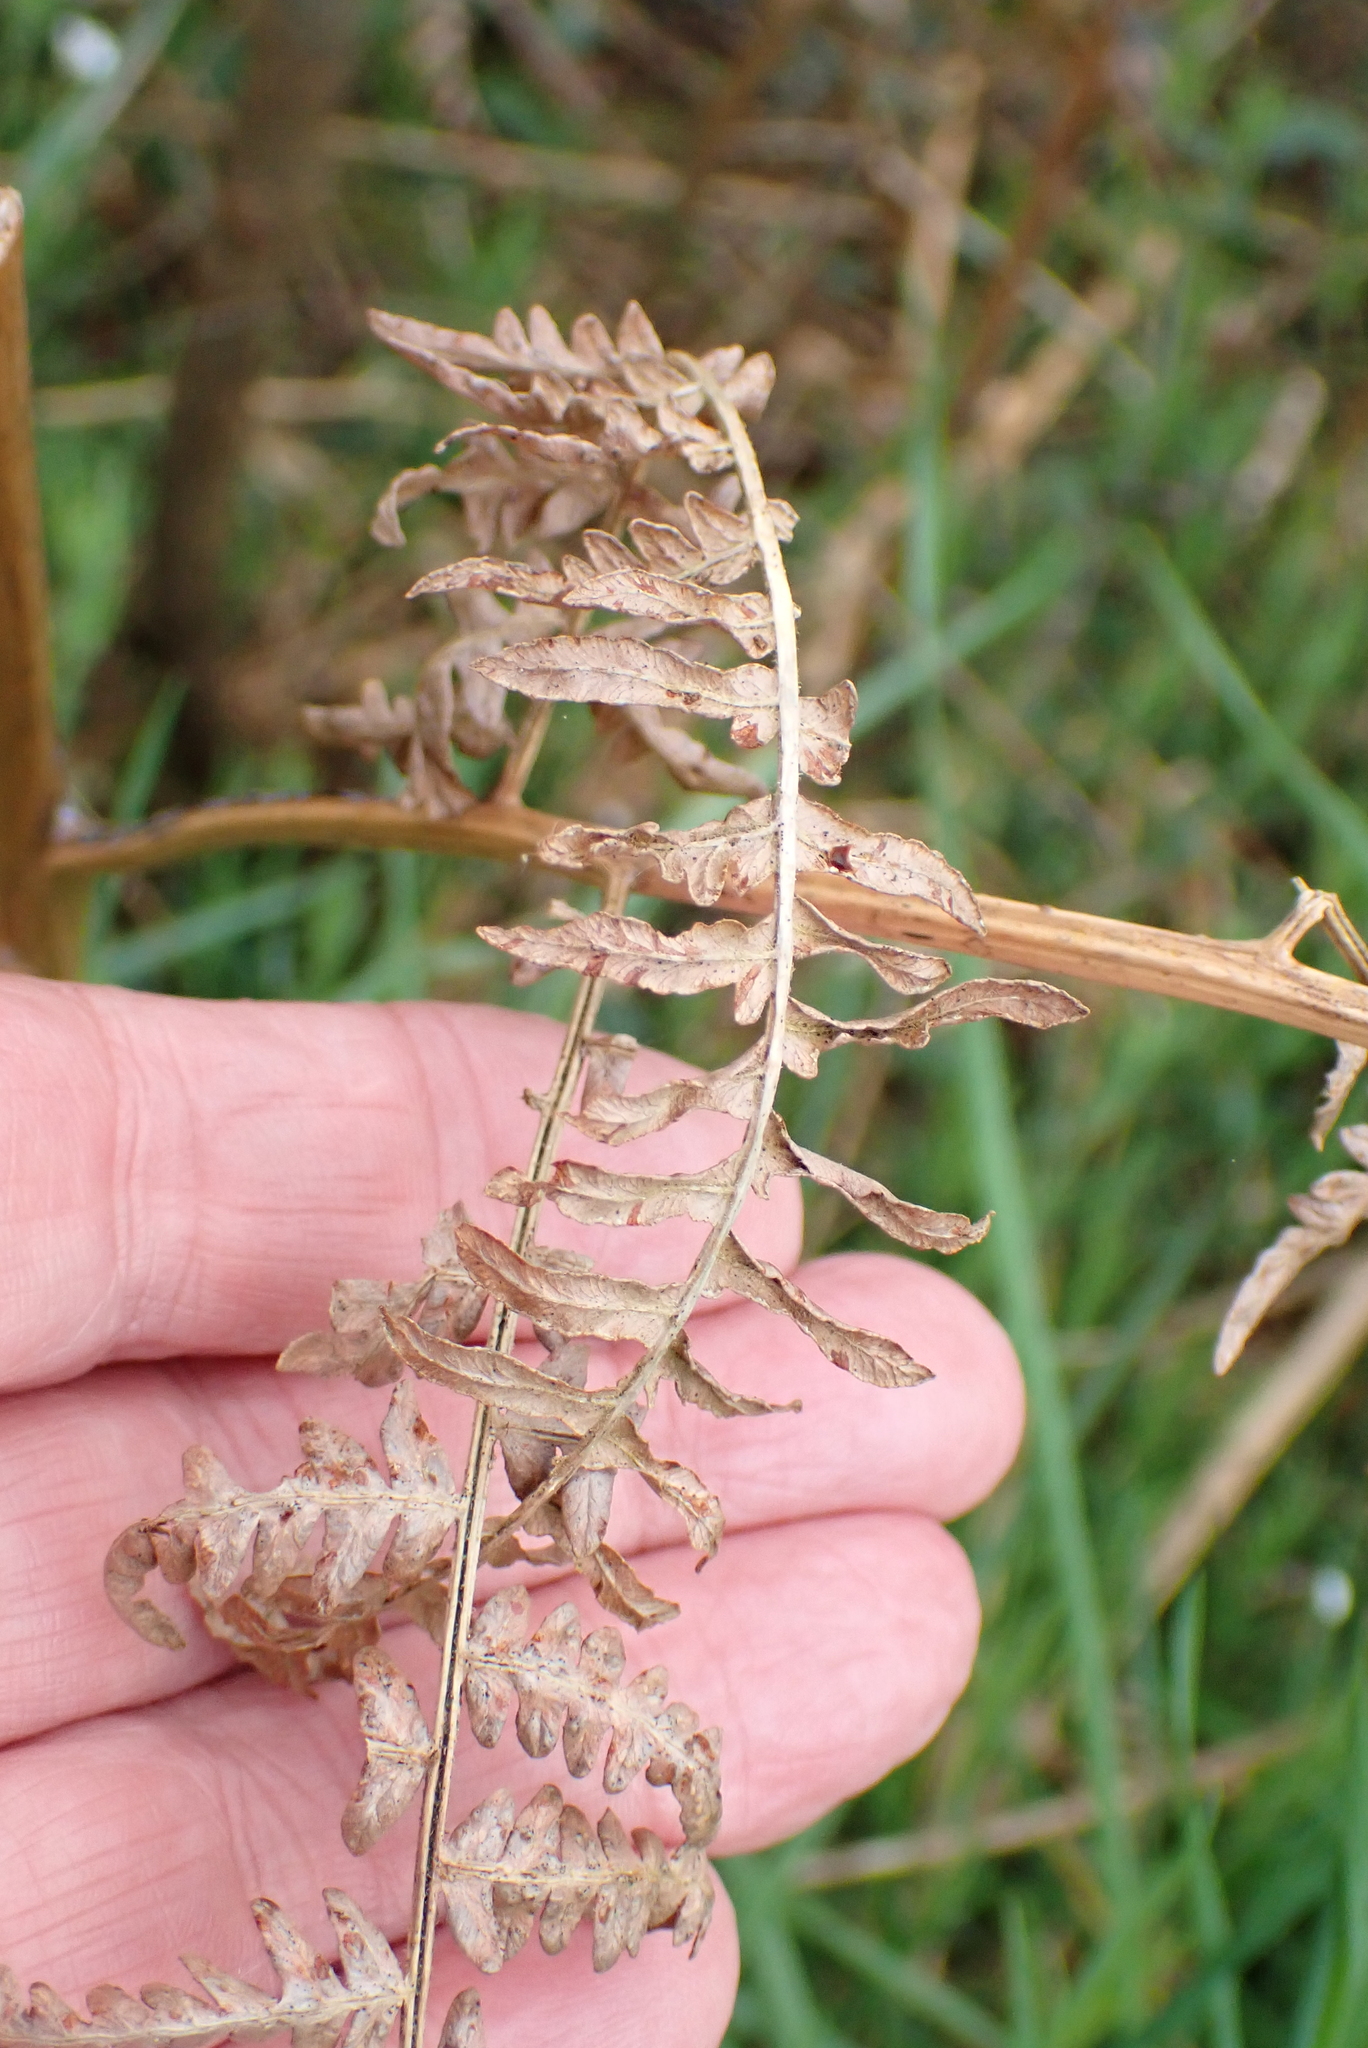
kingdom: Plantae
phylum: Tracheophyta
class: Polypodiopsida
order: Polypodiales
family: Dennstaedtiaceae
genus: Pteridium
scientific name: Pteridium aquilinum
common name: Bracken
